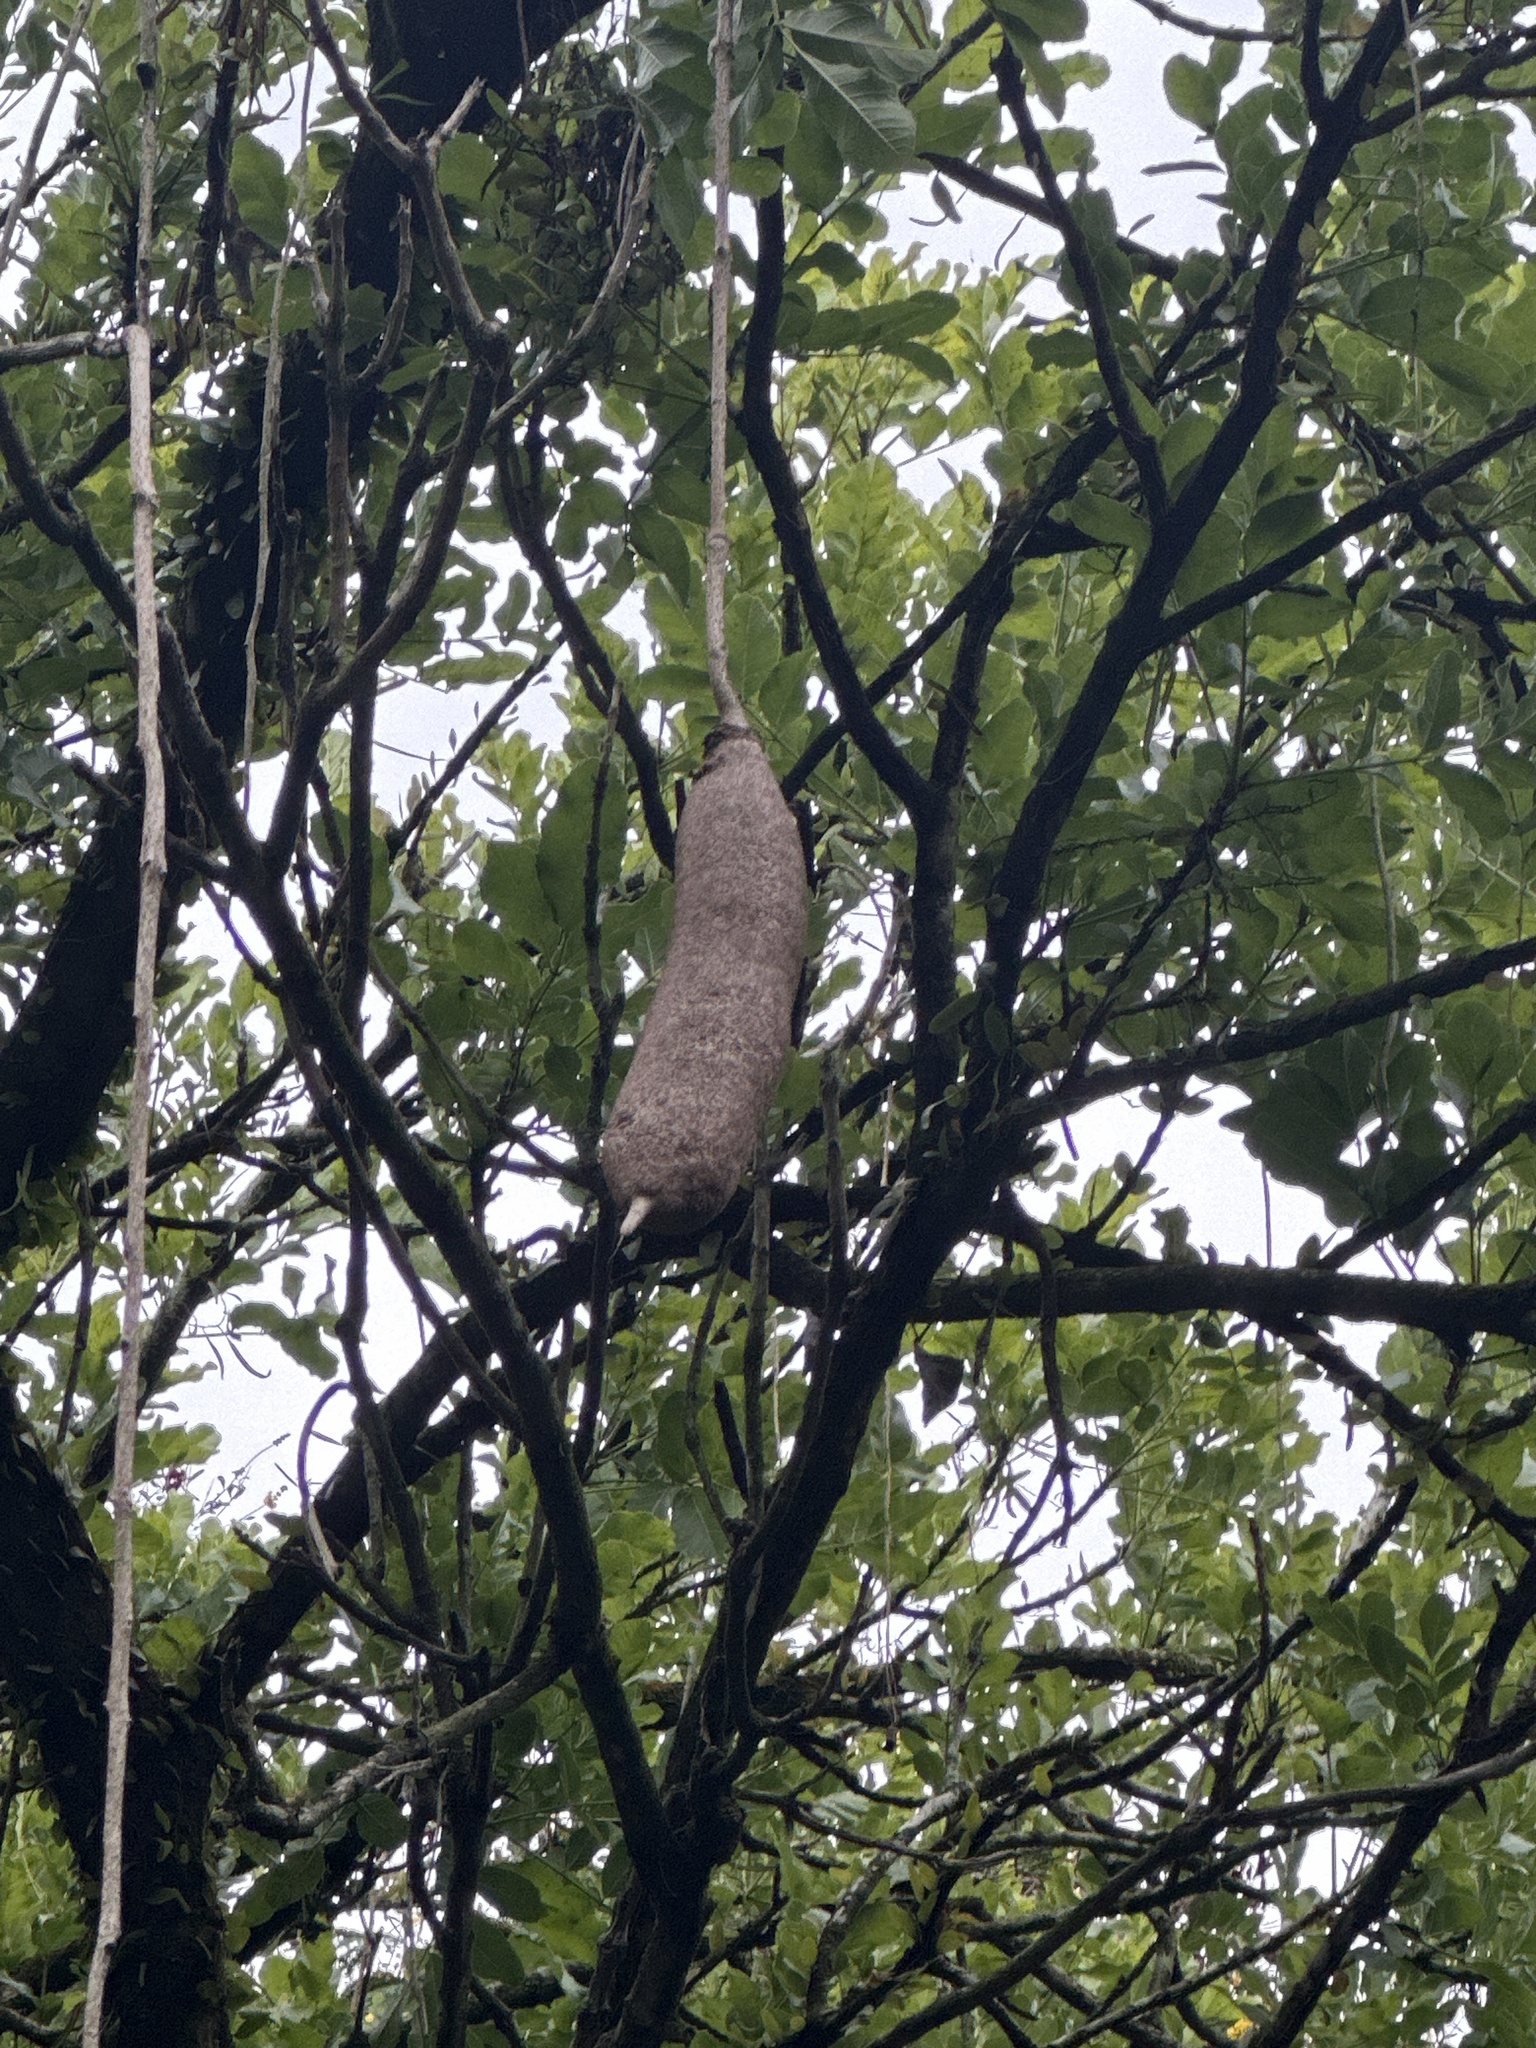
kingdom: Plantae
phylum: Tracheophyta
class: Magnoliopsida
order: Lamiales
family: Bignoniaceae
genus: Kigelia
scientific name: Kigelia africana
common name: Sausage tree
